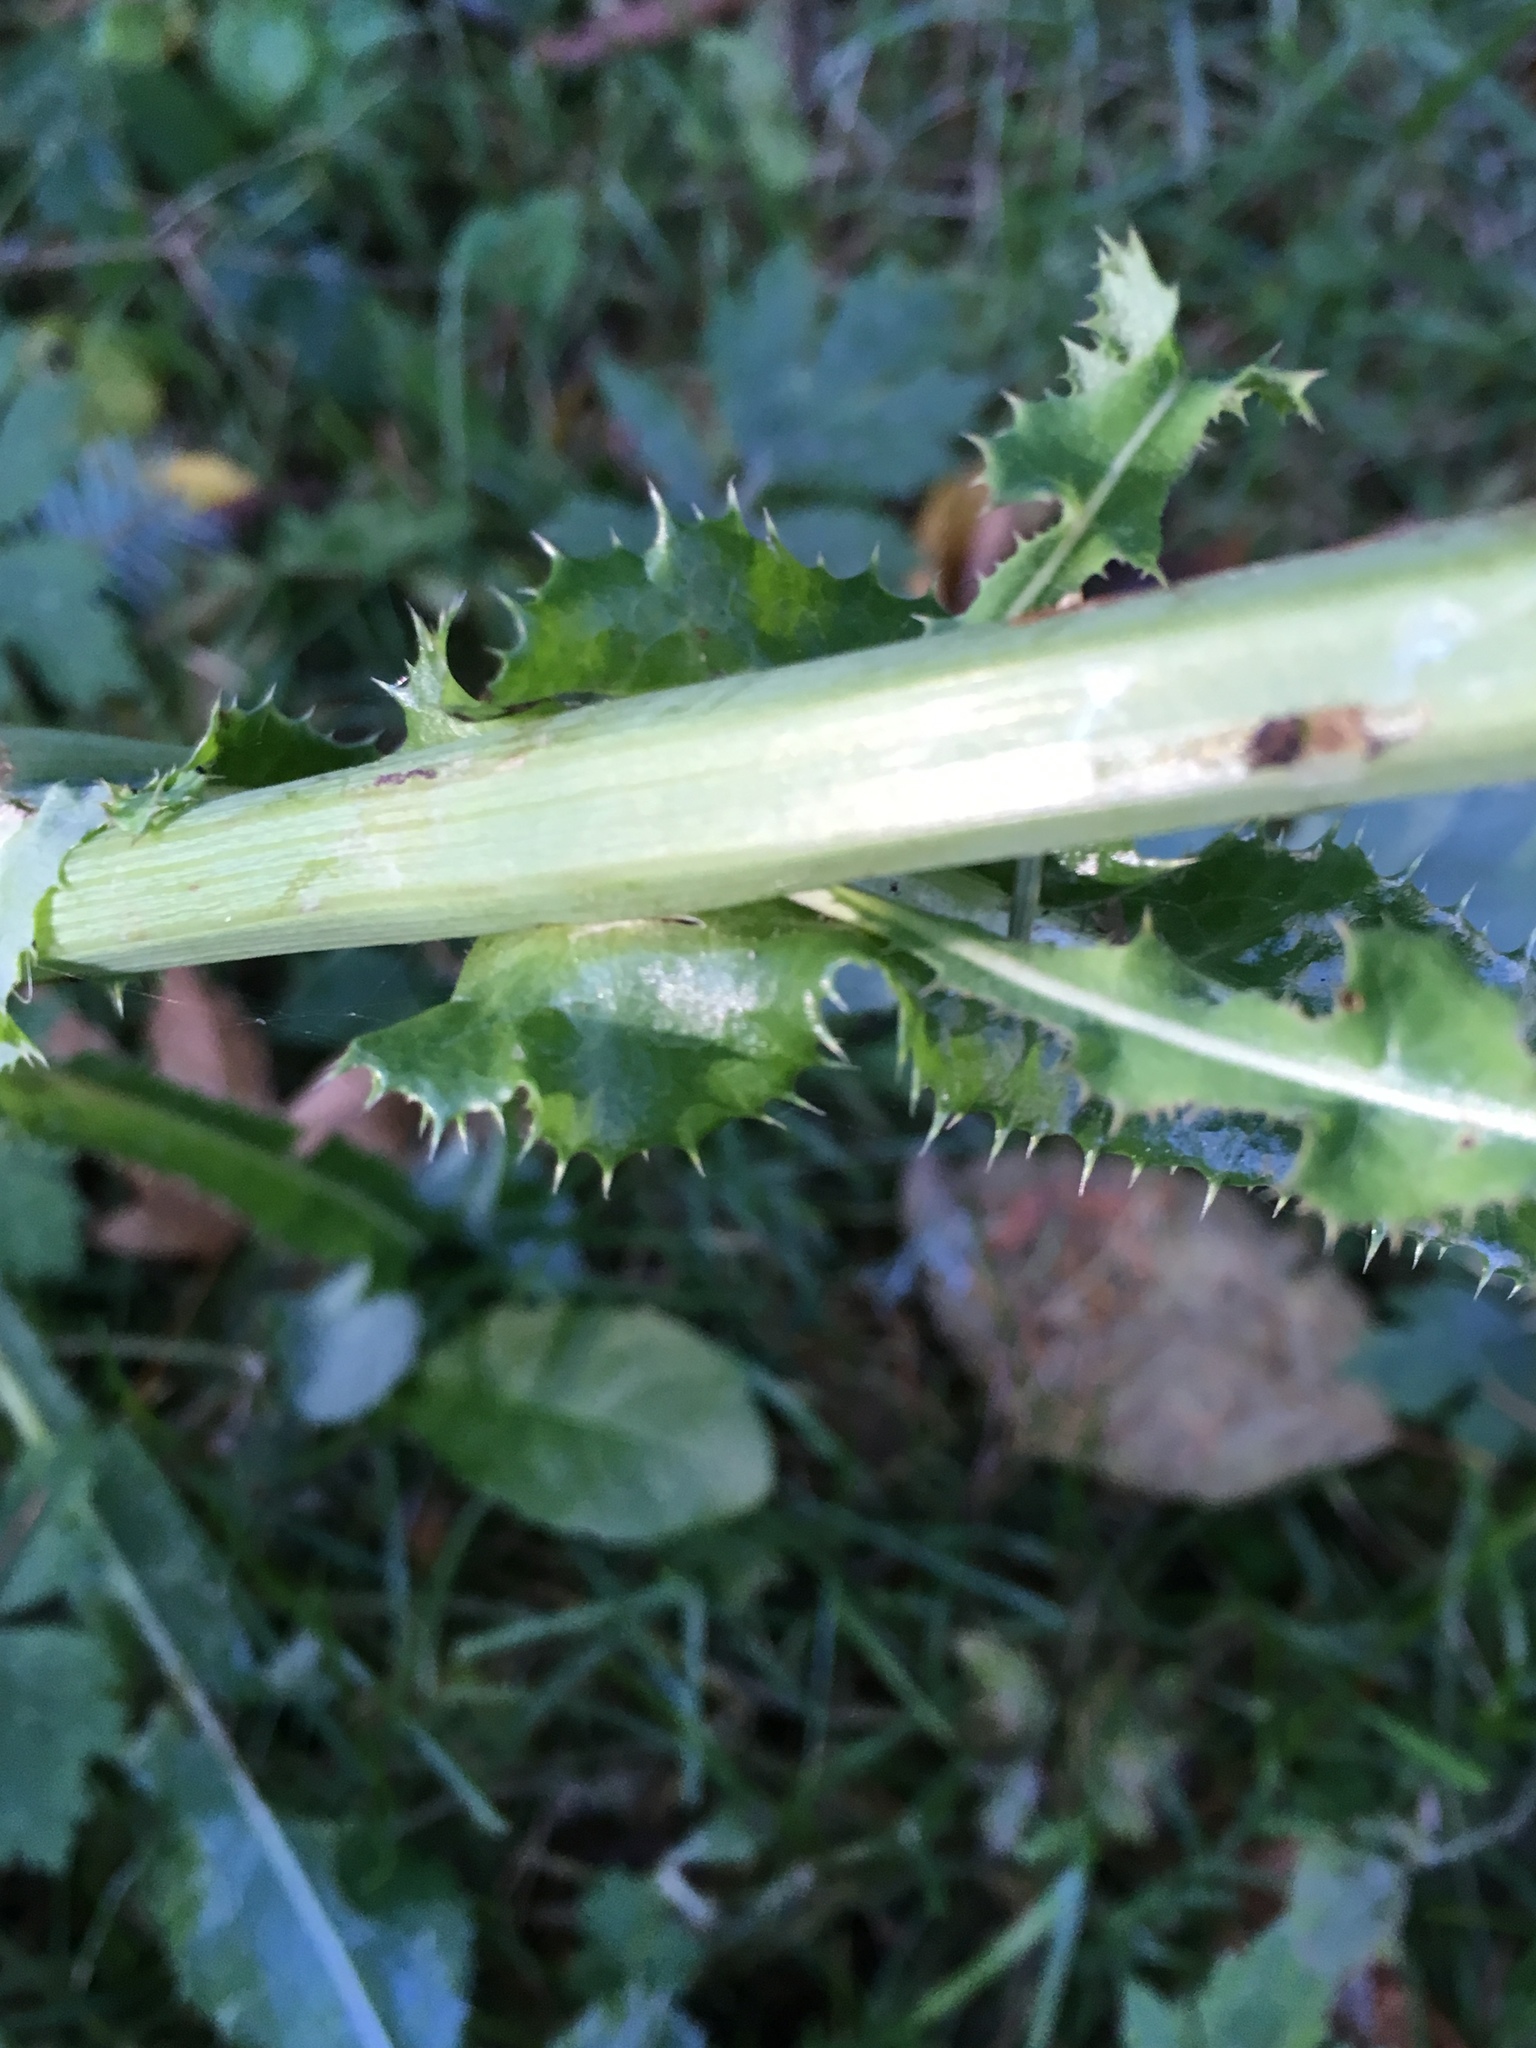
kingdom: Plantae
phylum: Tracheophyta
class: Magnoliopsida
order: Asterales
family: Asteraceae
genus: Sonchus
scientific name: Sonchus asper
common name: Prickly sow-thistle
